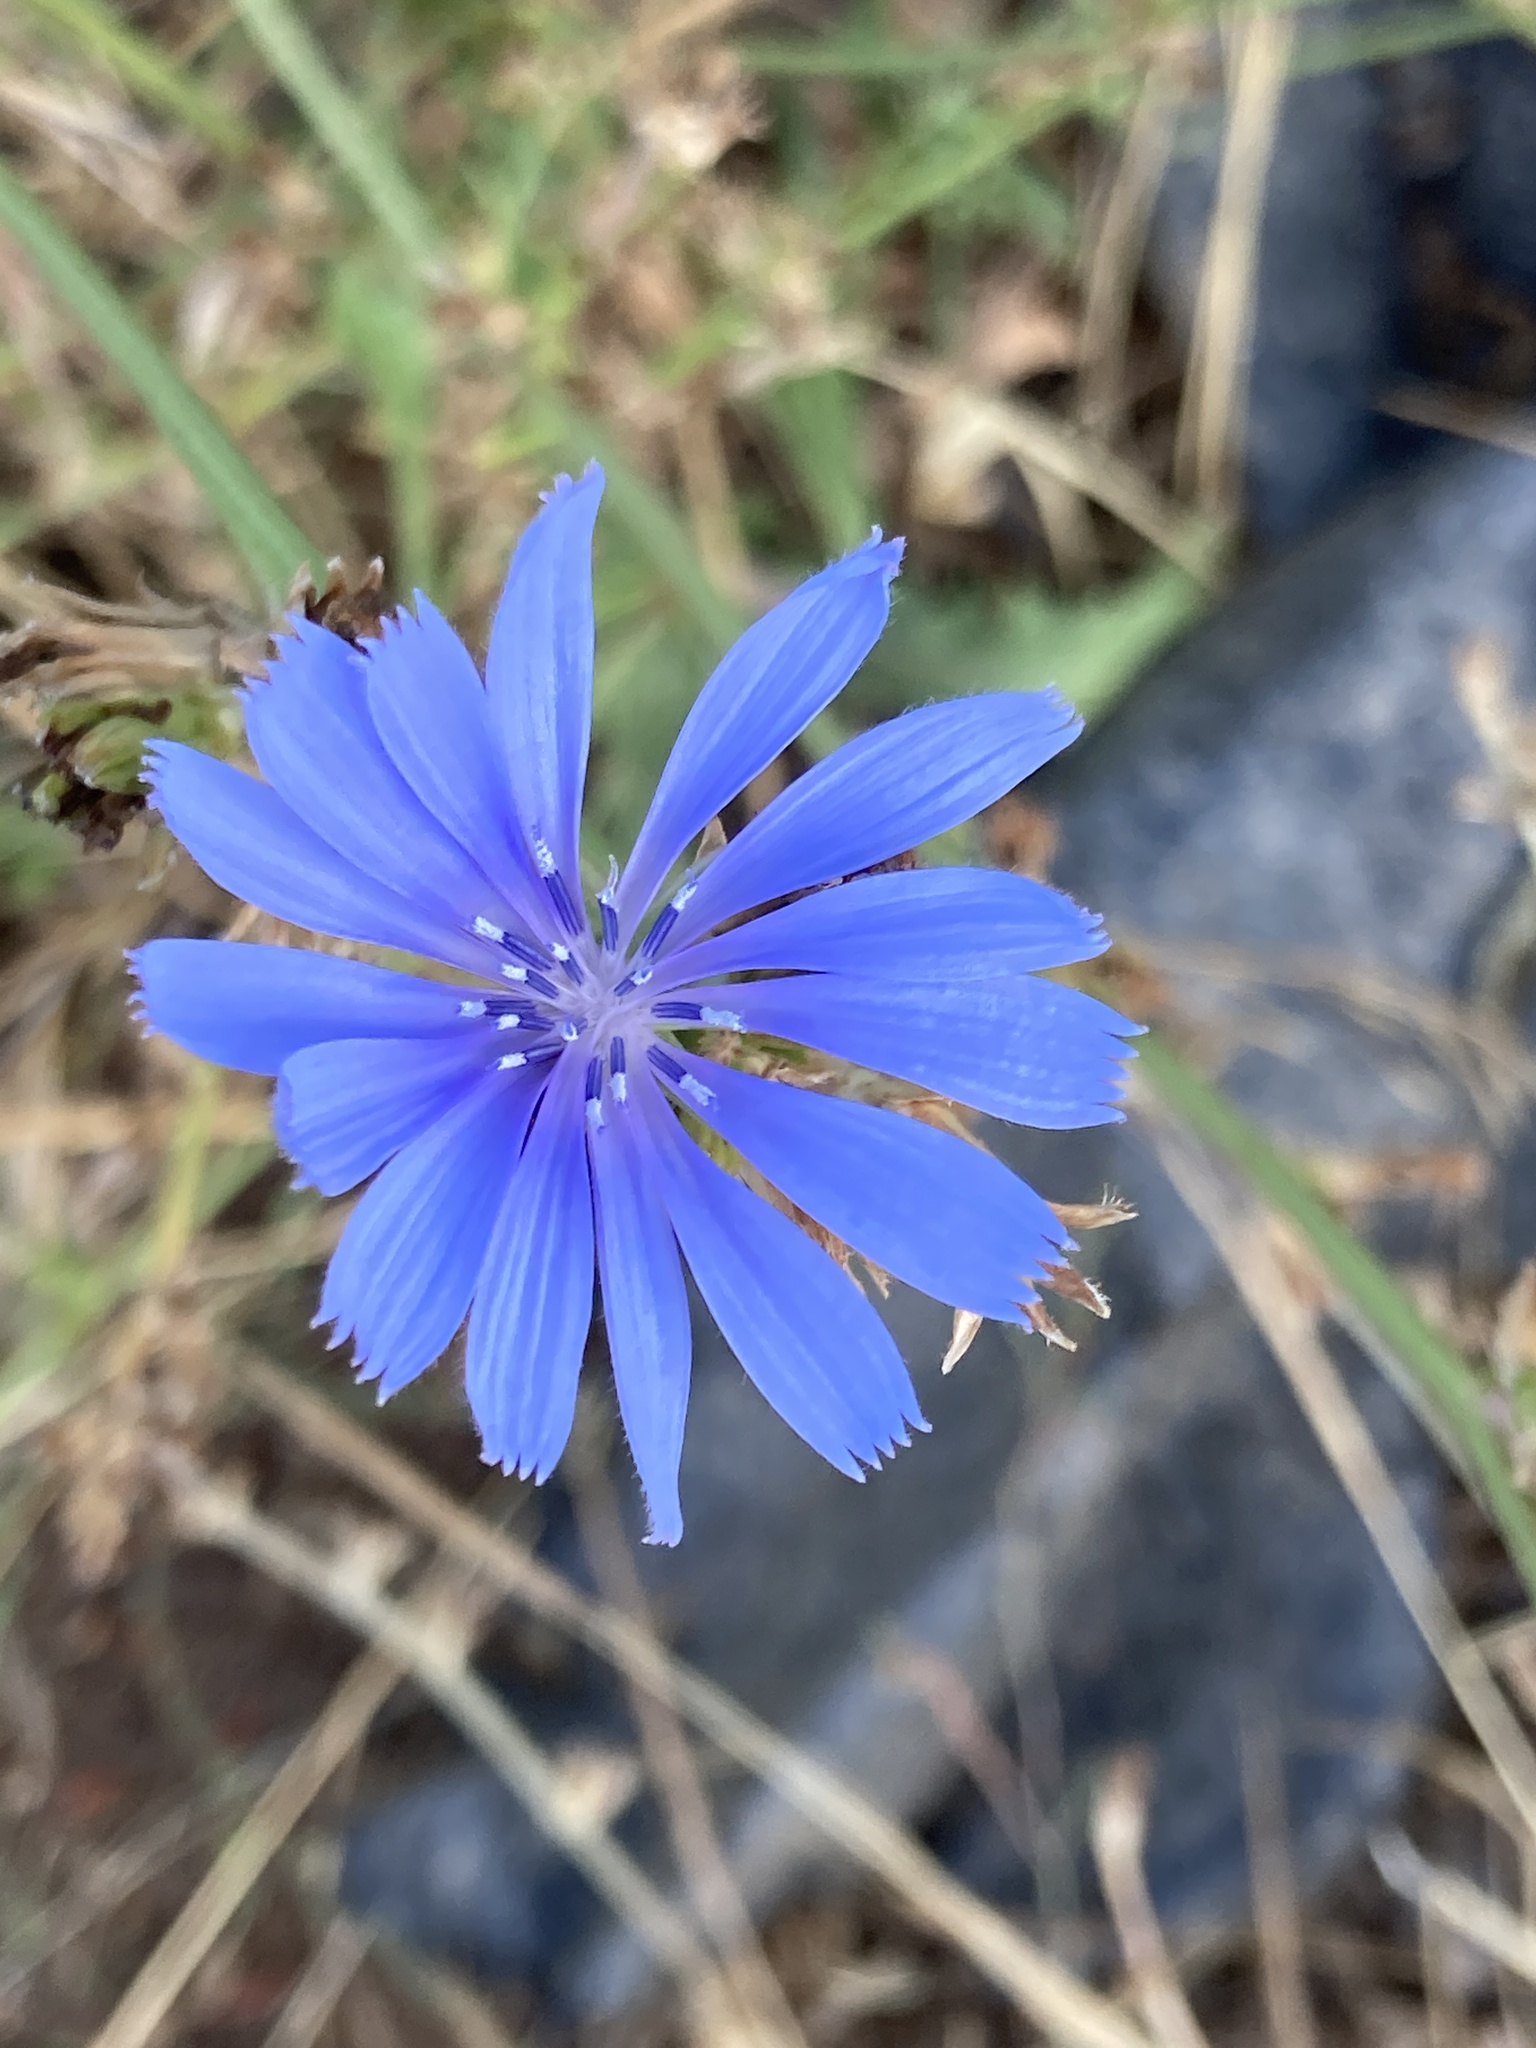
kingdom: Plantae
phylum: Tracheophyta
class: Magnoliopsida
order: Asterales
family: Asteraceae
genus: Cichorium
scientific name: Cichorium intybus
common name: Chicory
